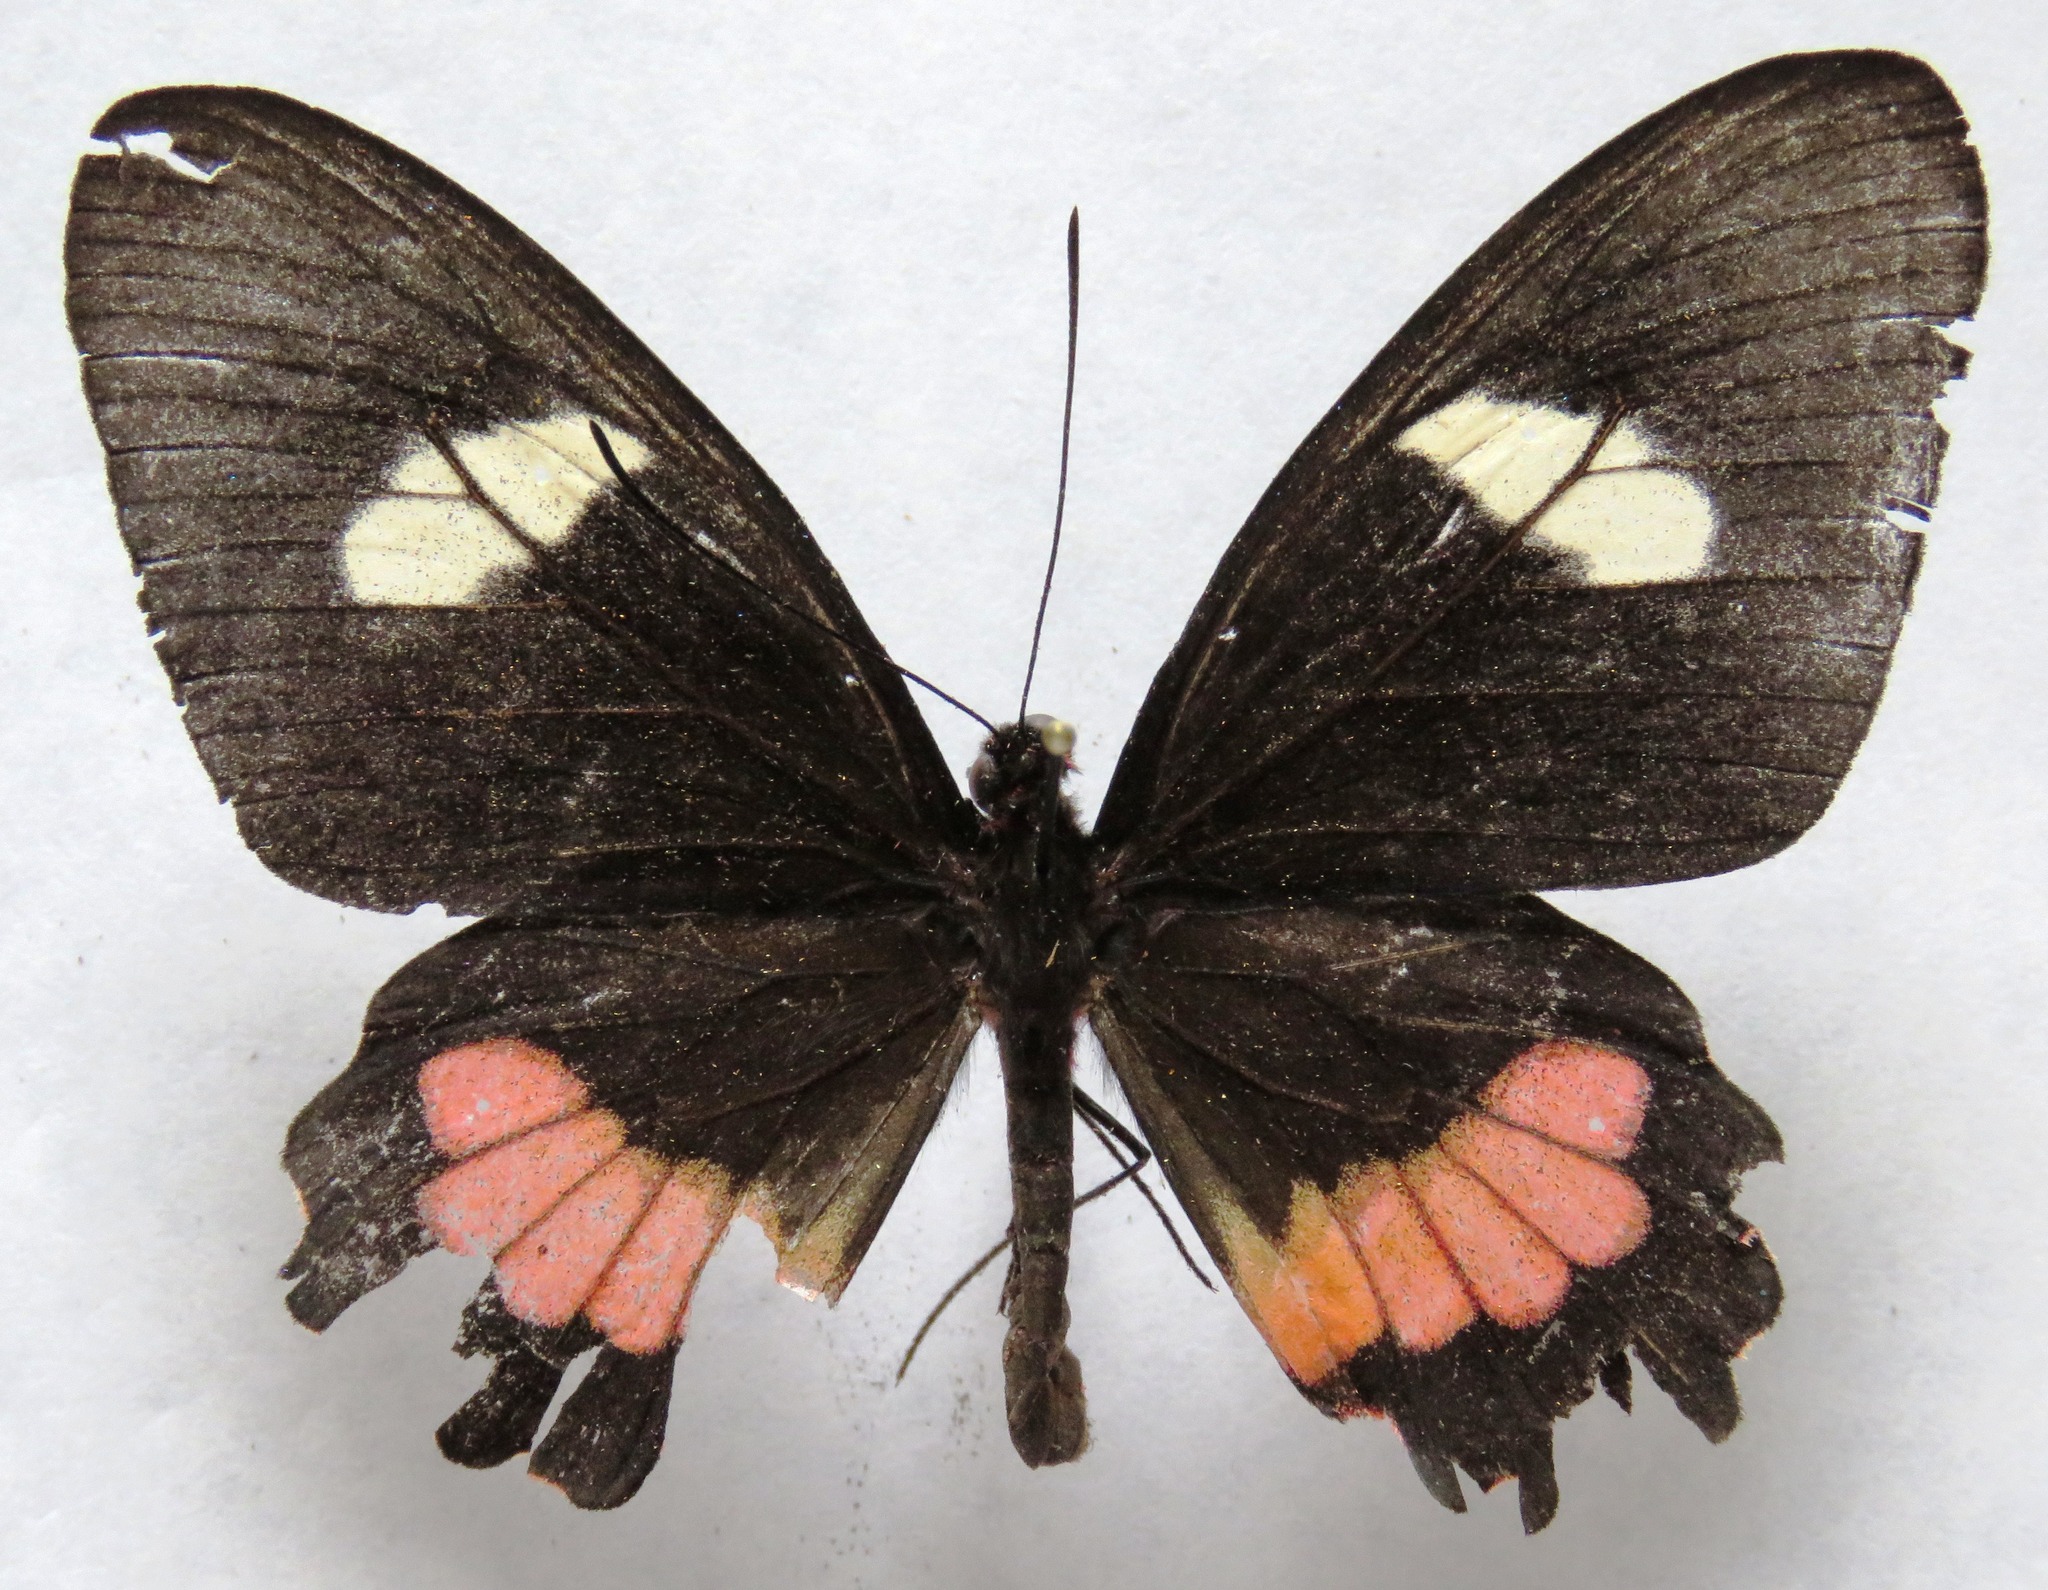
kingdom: Animalia
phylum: Arthropoda
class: Insecta
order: Lepidoptera
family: Papilionidae
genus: Parides
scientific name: Parides eurimedes
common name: True cattleheart
